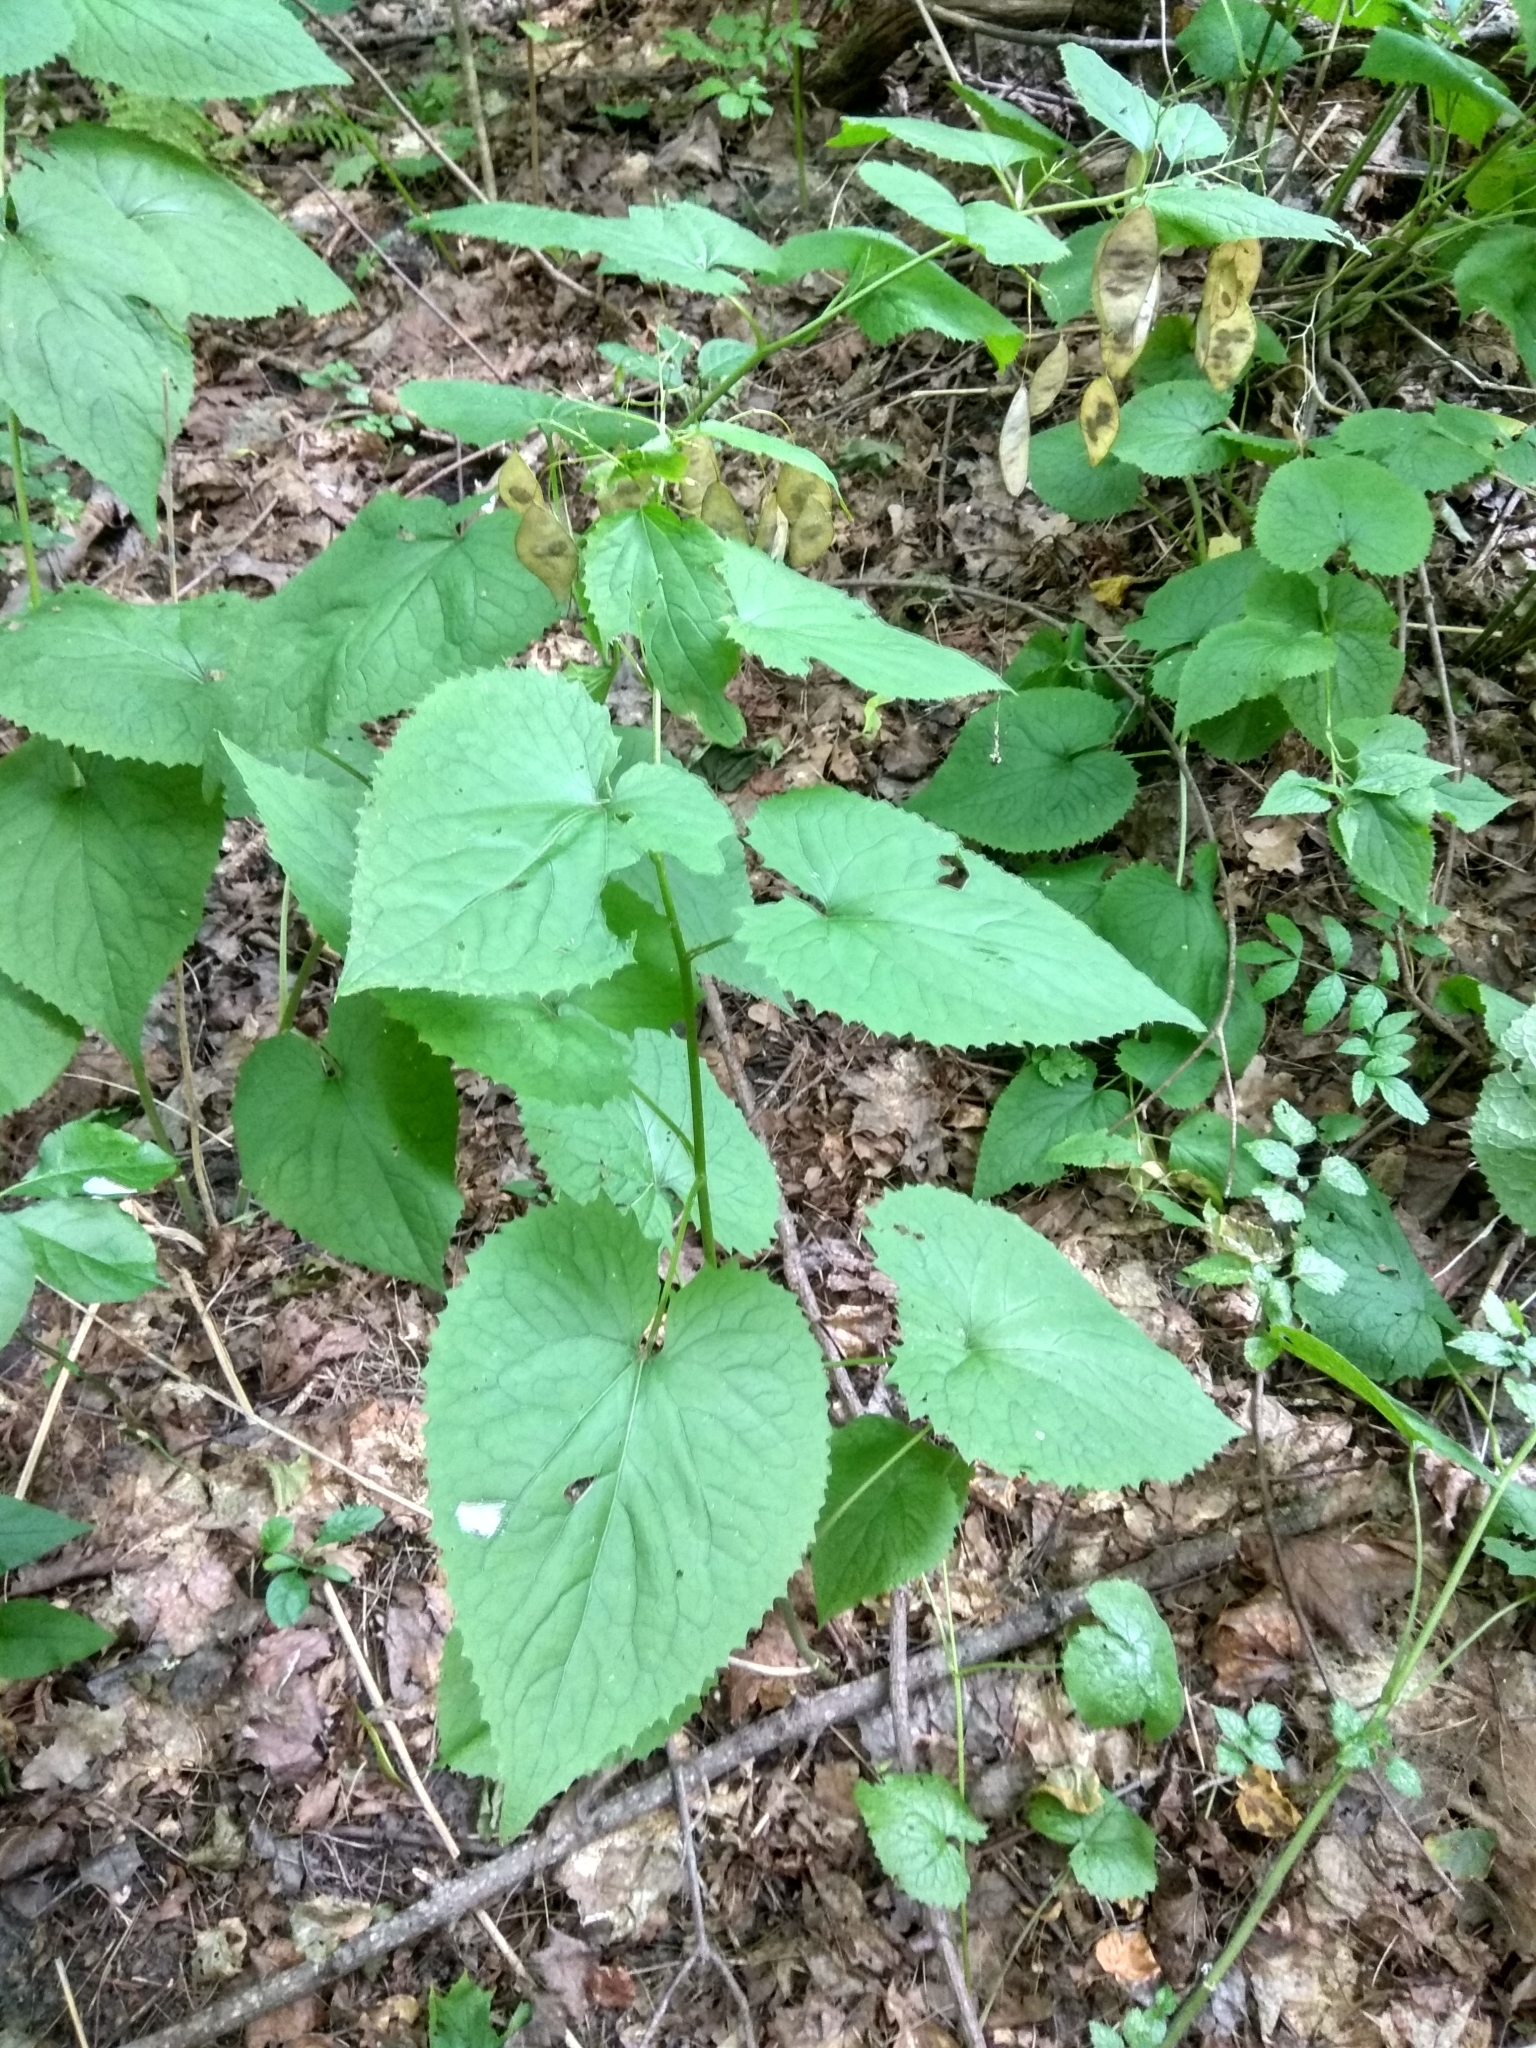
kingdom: Plantae
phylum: Tracheophyta
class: Magnoliopsida
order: Brassicales
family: Brassicaceae
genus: Lunaria
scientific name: Lunaria rediviva
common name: Perennial honesty
